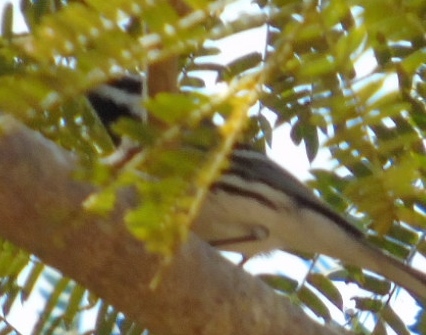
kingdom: Animalia
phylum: Chordata
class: Aves
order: Passeriformes
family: Parulidae
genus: Setophaga
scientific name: Setophaga nigrescens
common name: Black-throated gray warbler
